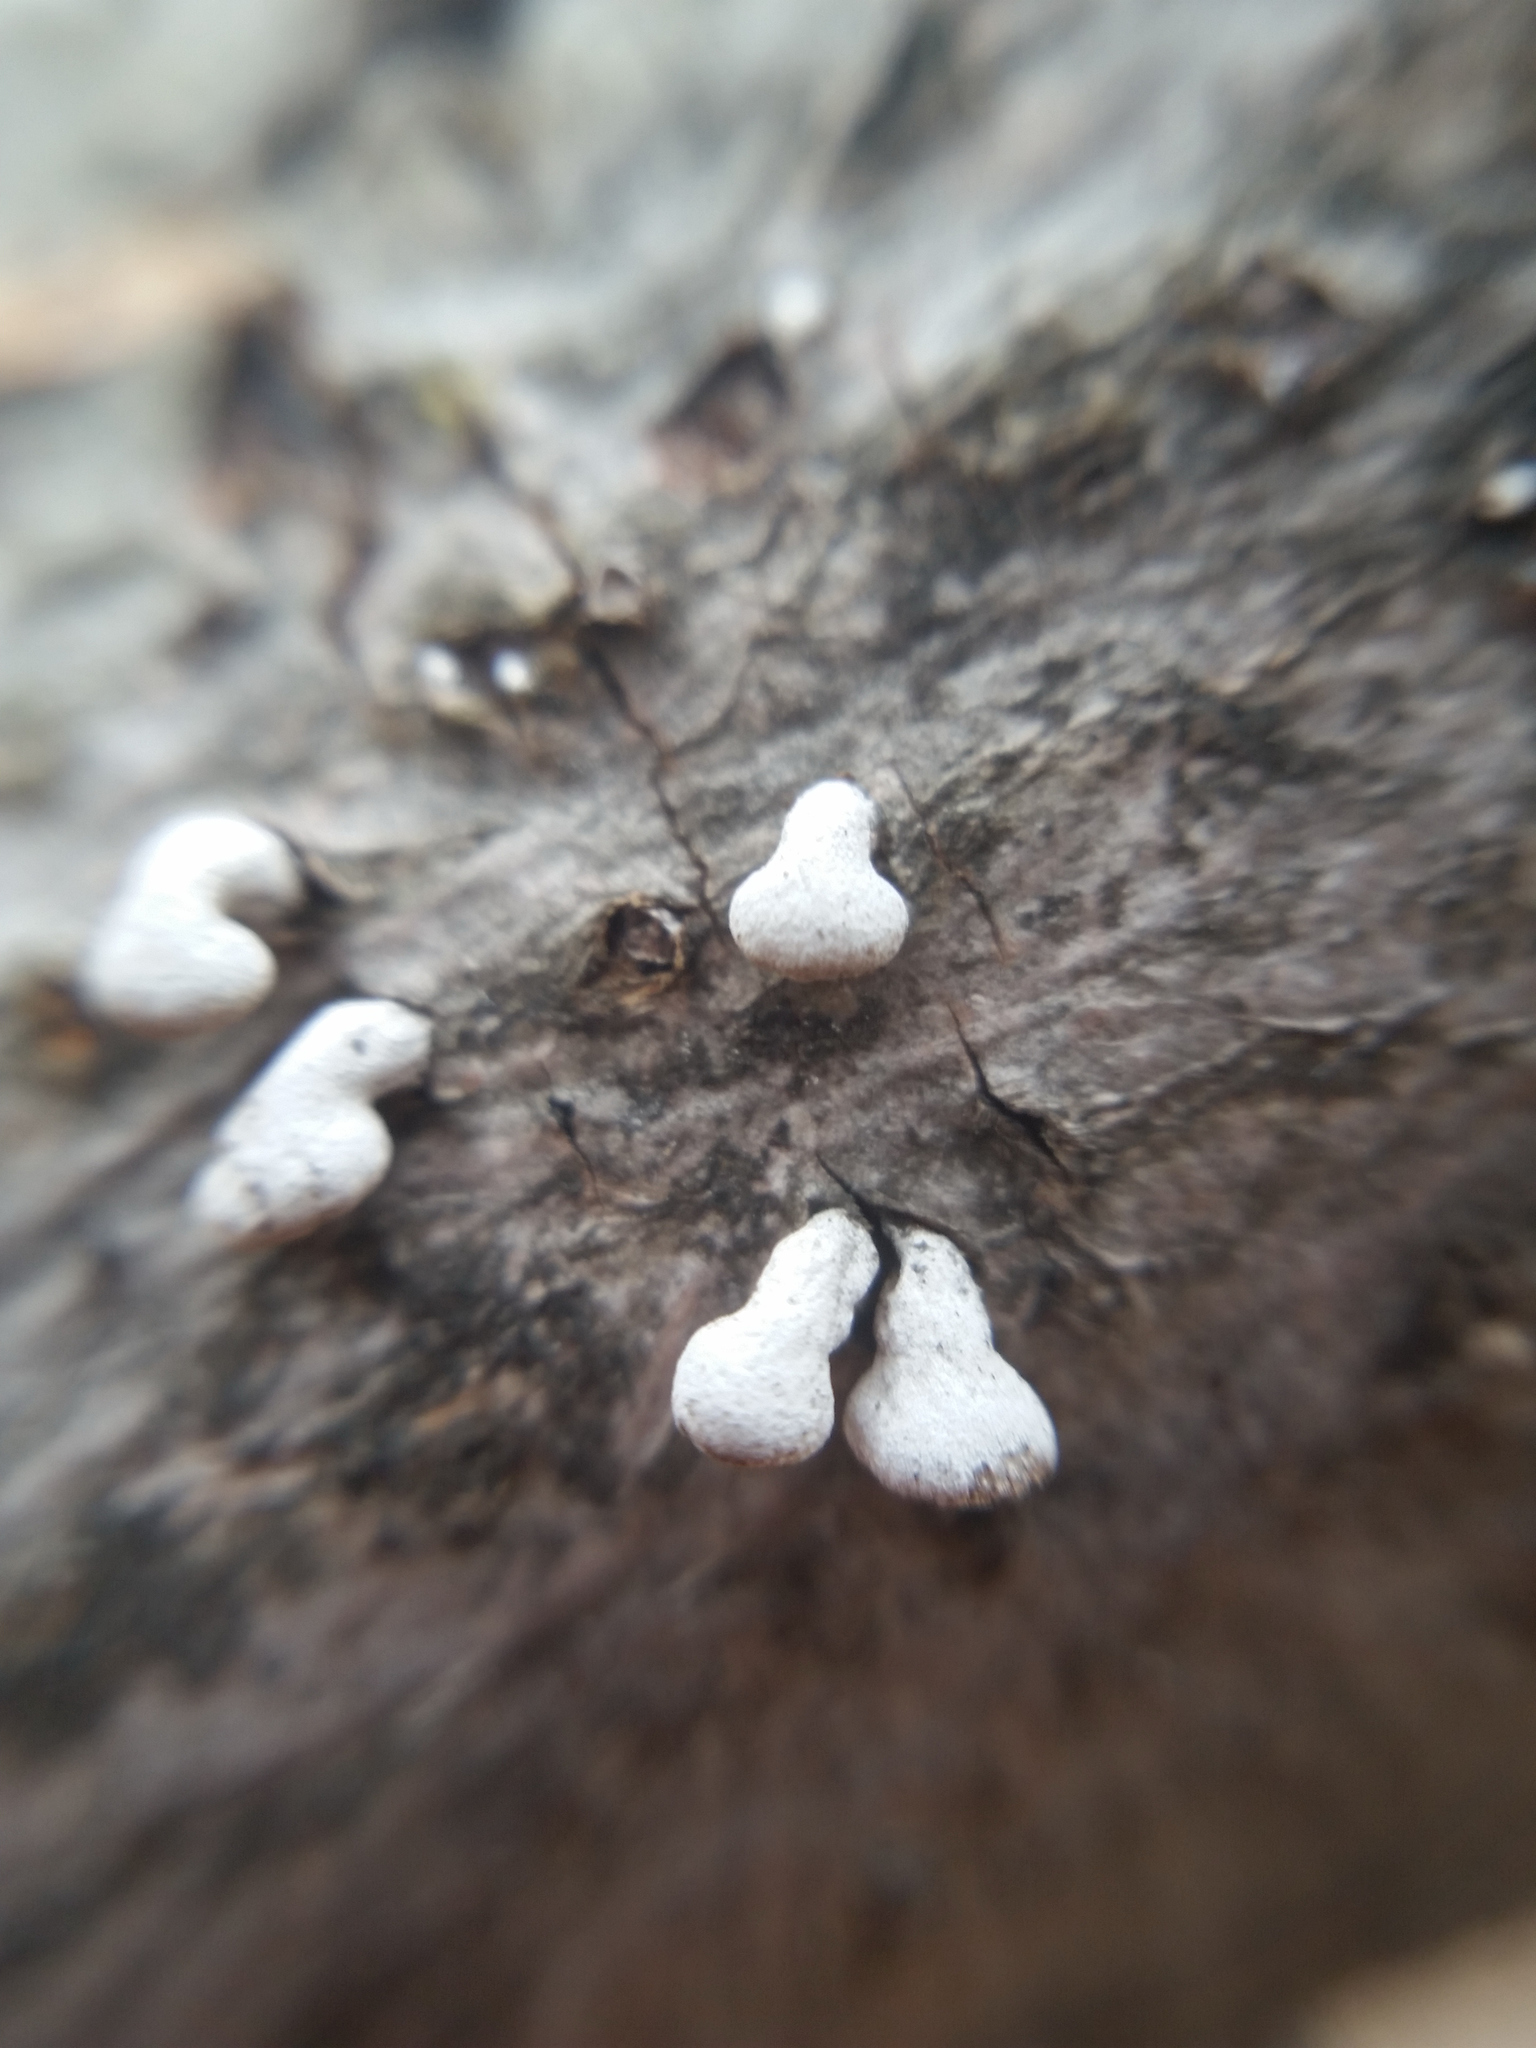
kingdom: Fungi
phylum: Basidiomycota
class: Agaricomycetes
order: Agaricales
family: Schizophyllaceae
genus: Porodisculus
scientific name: Porodisculus pendulus
